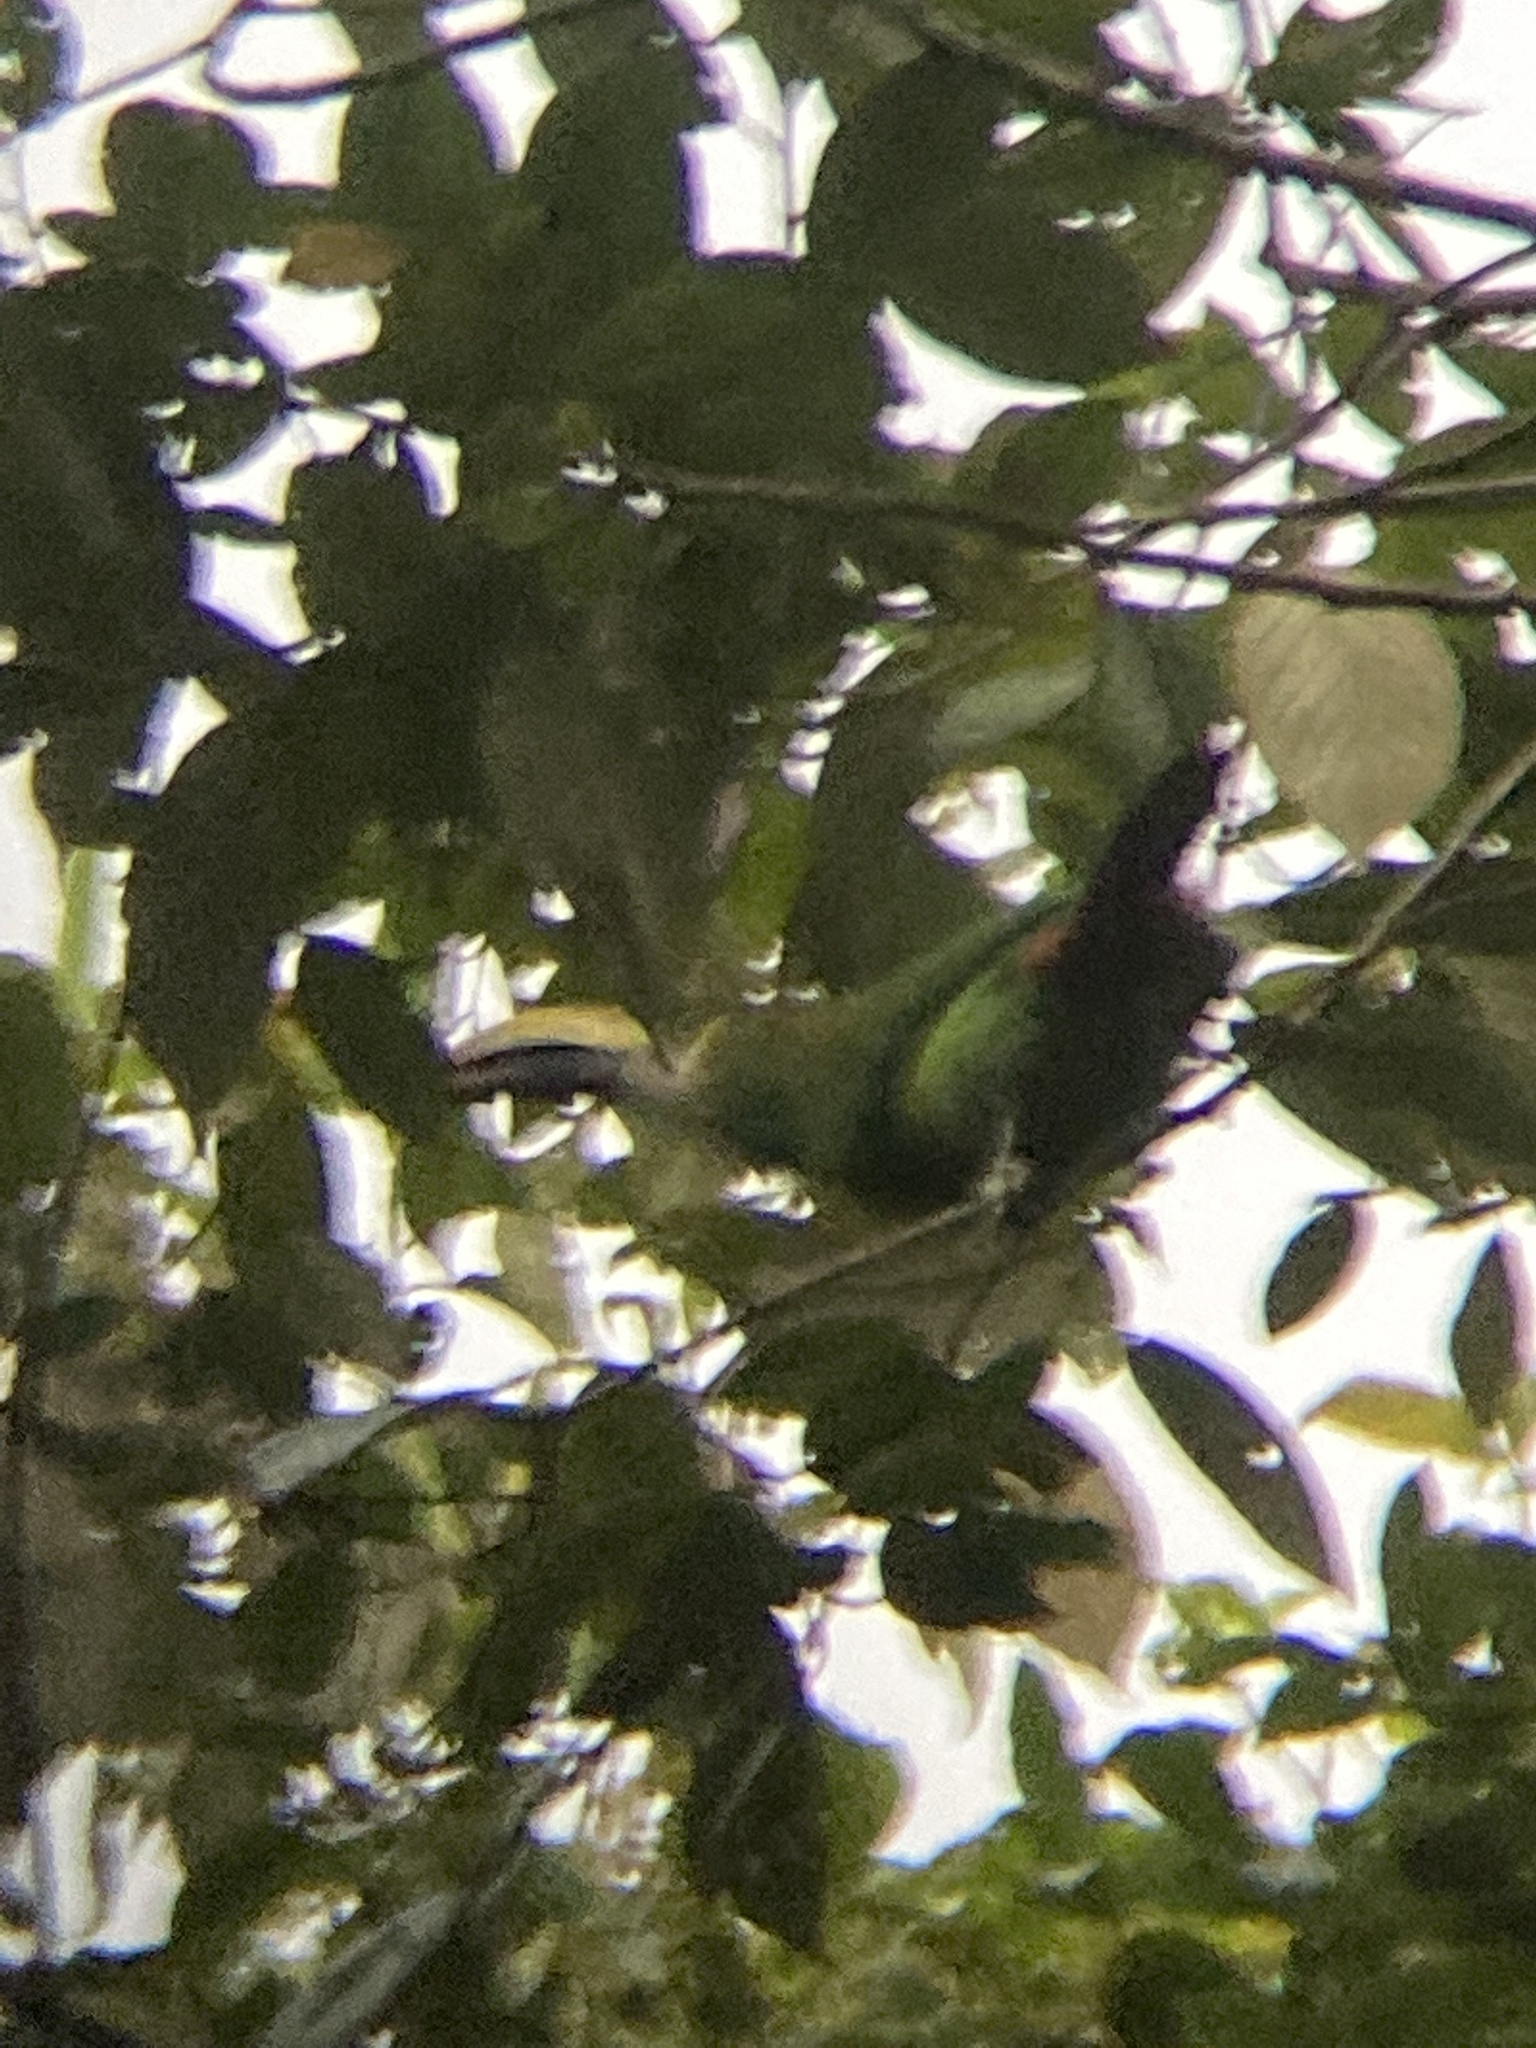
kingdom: Animalia
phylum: Chordata
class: Aves
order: Piciformes
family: Ramphastidae
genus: Aulacorhynchus
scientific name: Aulacorhynchus prasinus
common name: Emerald toucanet
